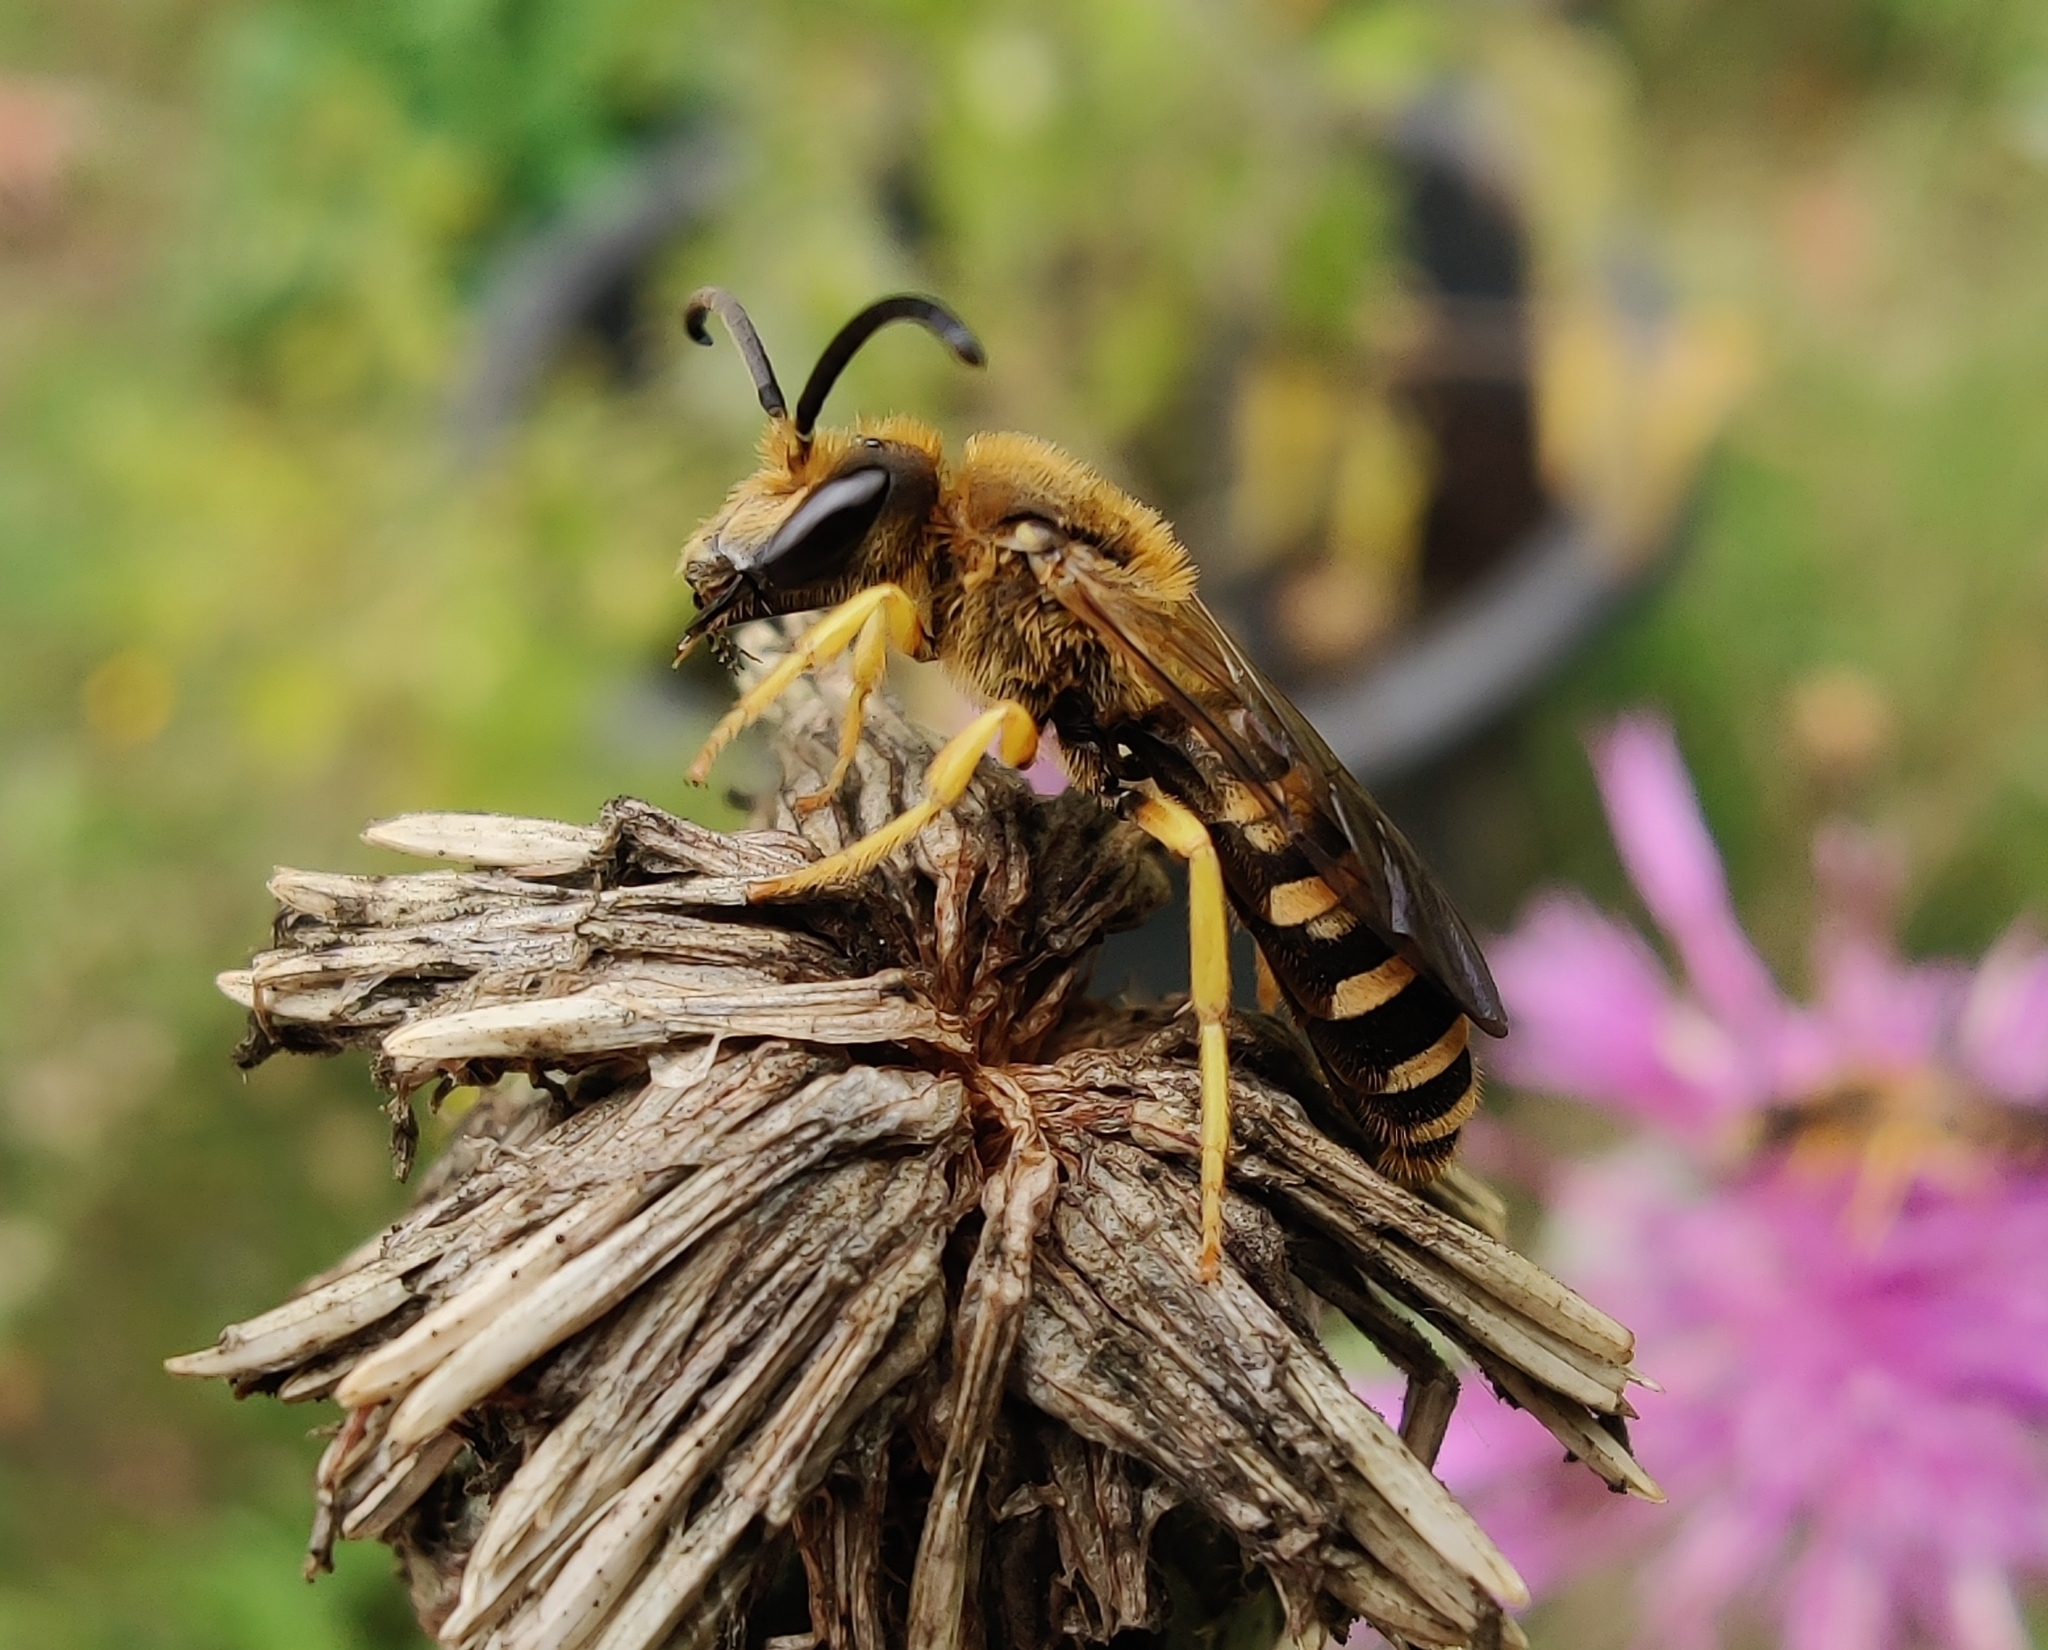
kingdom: Animalia
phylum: Arthropoda
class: Insecta
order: Hymenoptera
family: Halictidae
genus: Halictus
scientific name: Halictus scabiosae
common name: Great banded furrow bee
